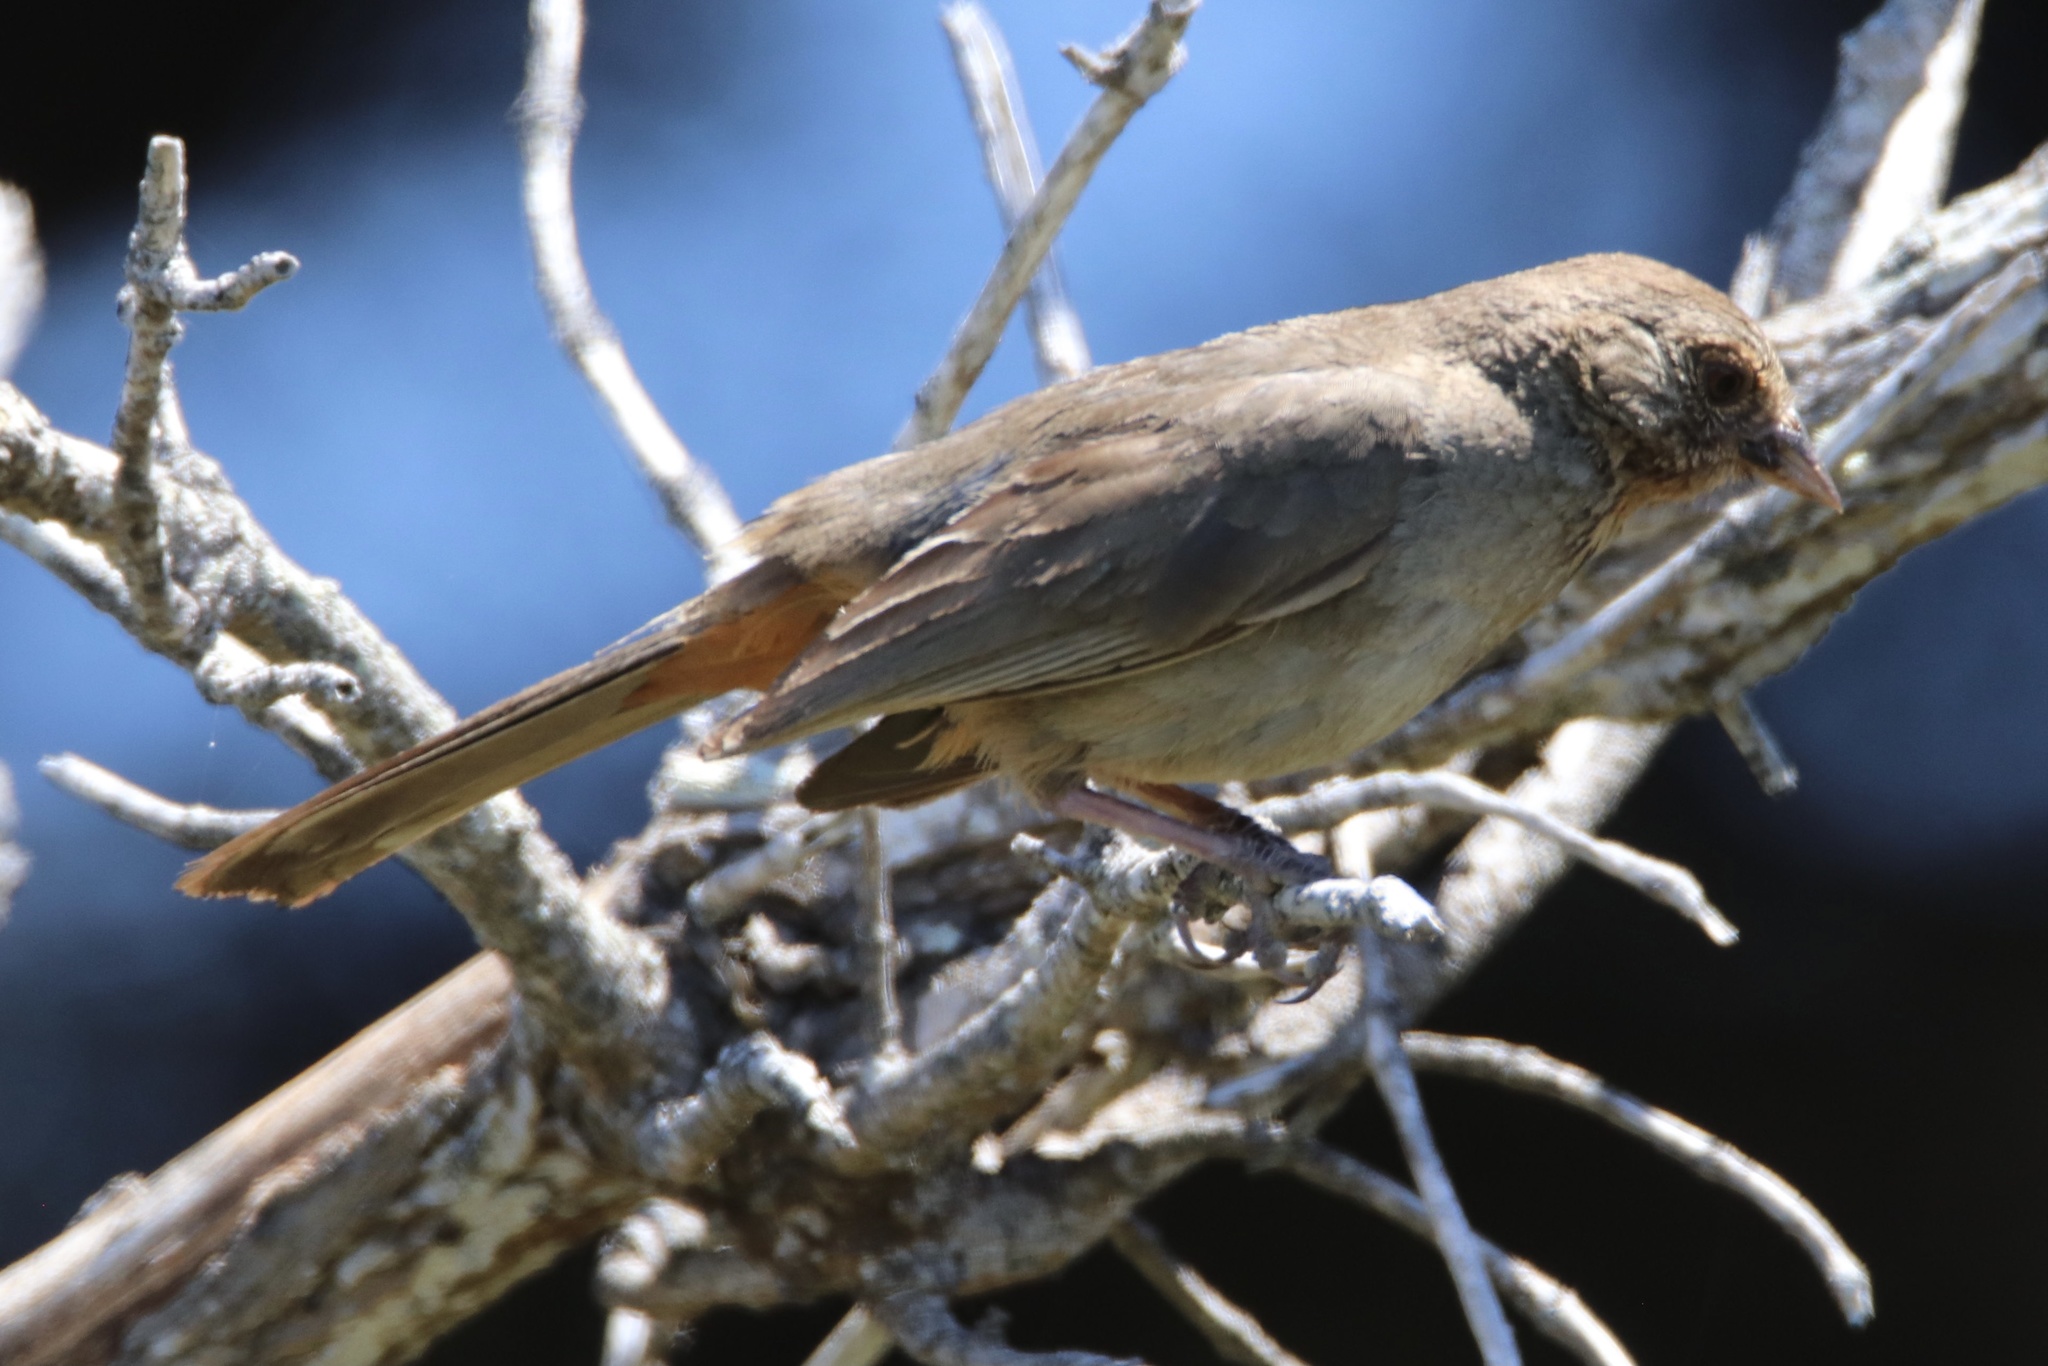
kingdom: Animalia
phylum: Chordata
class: Aves
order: Passeriformes
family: Passerellidae
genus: Melozone
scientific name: Melozone crissalis
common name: California towhee
